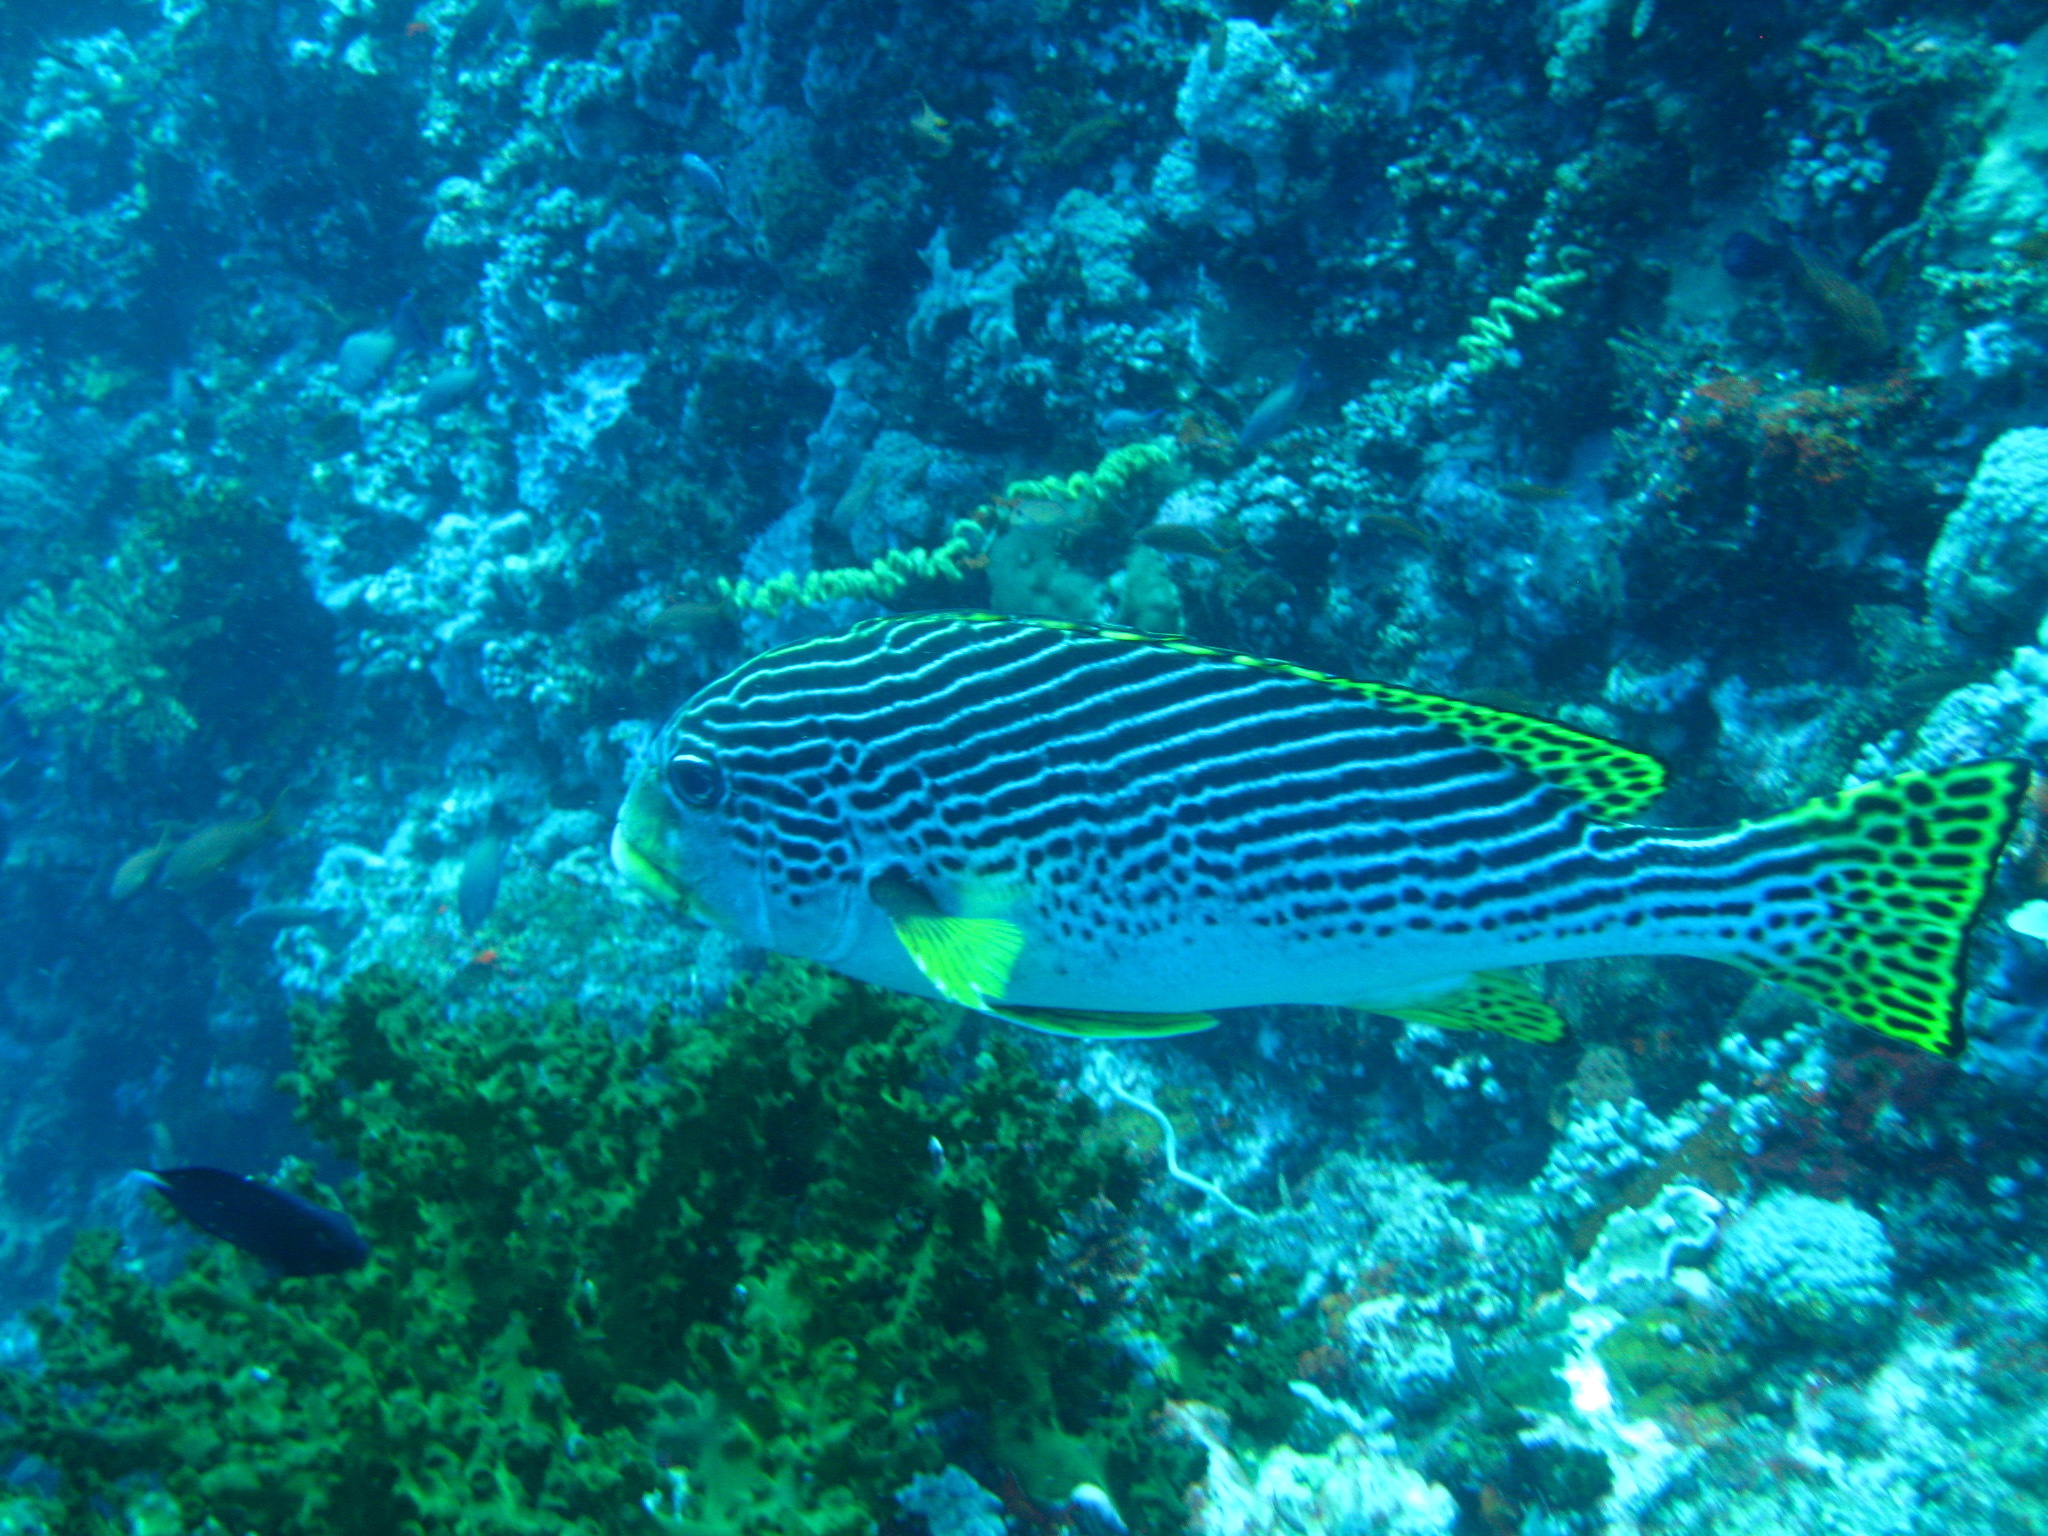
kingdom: Animalia
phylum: Chordata
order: Perciformes
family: Haemulidae
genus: Plectorhinchus
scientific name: Plectorhinchus lineatus
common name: Goldman's sweetlips
